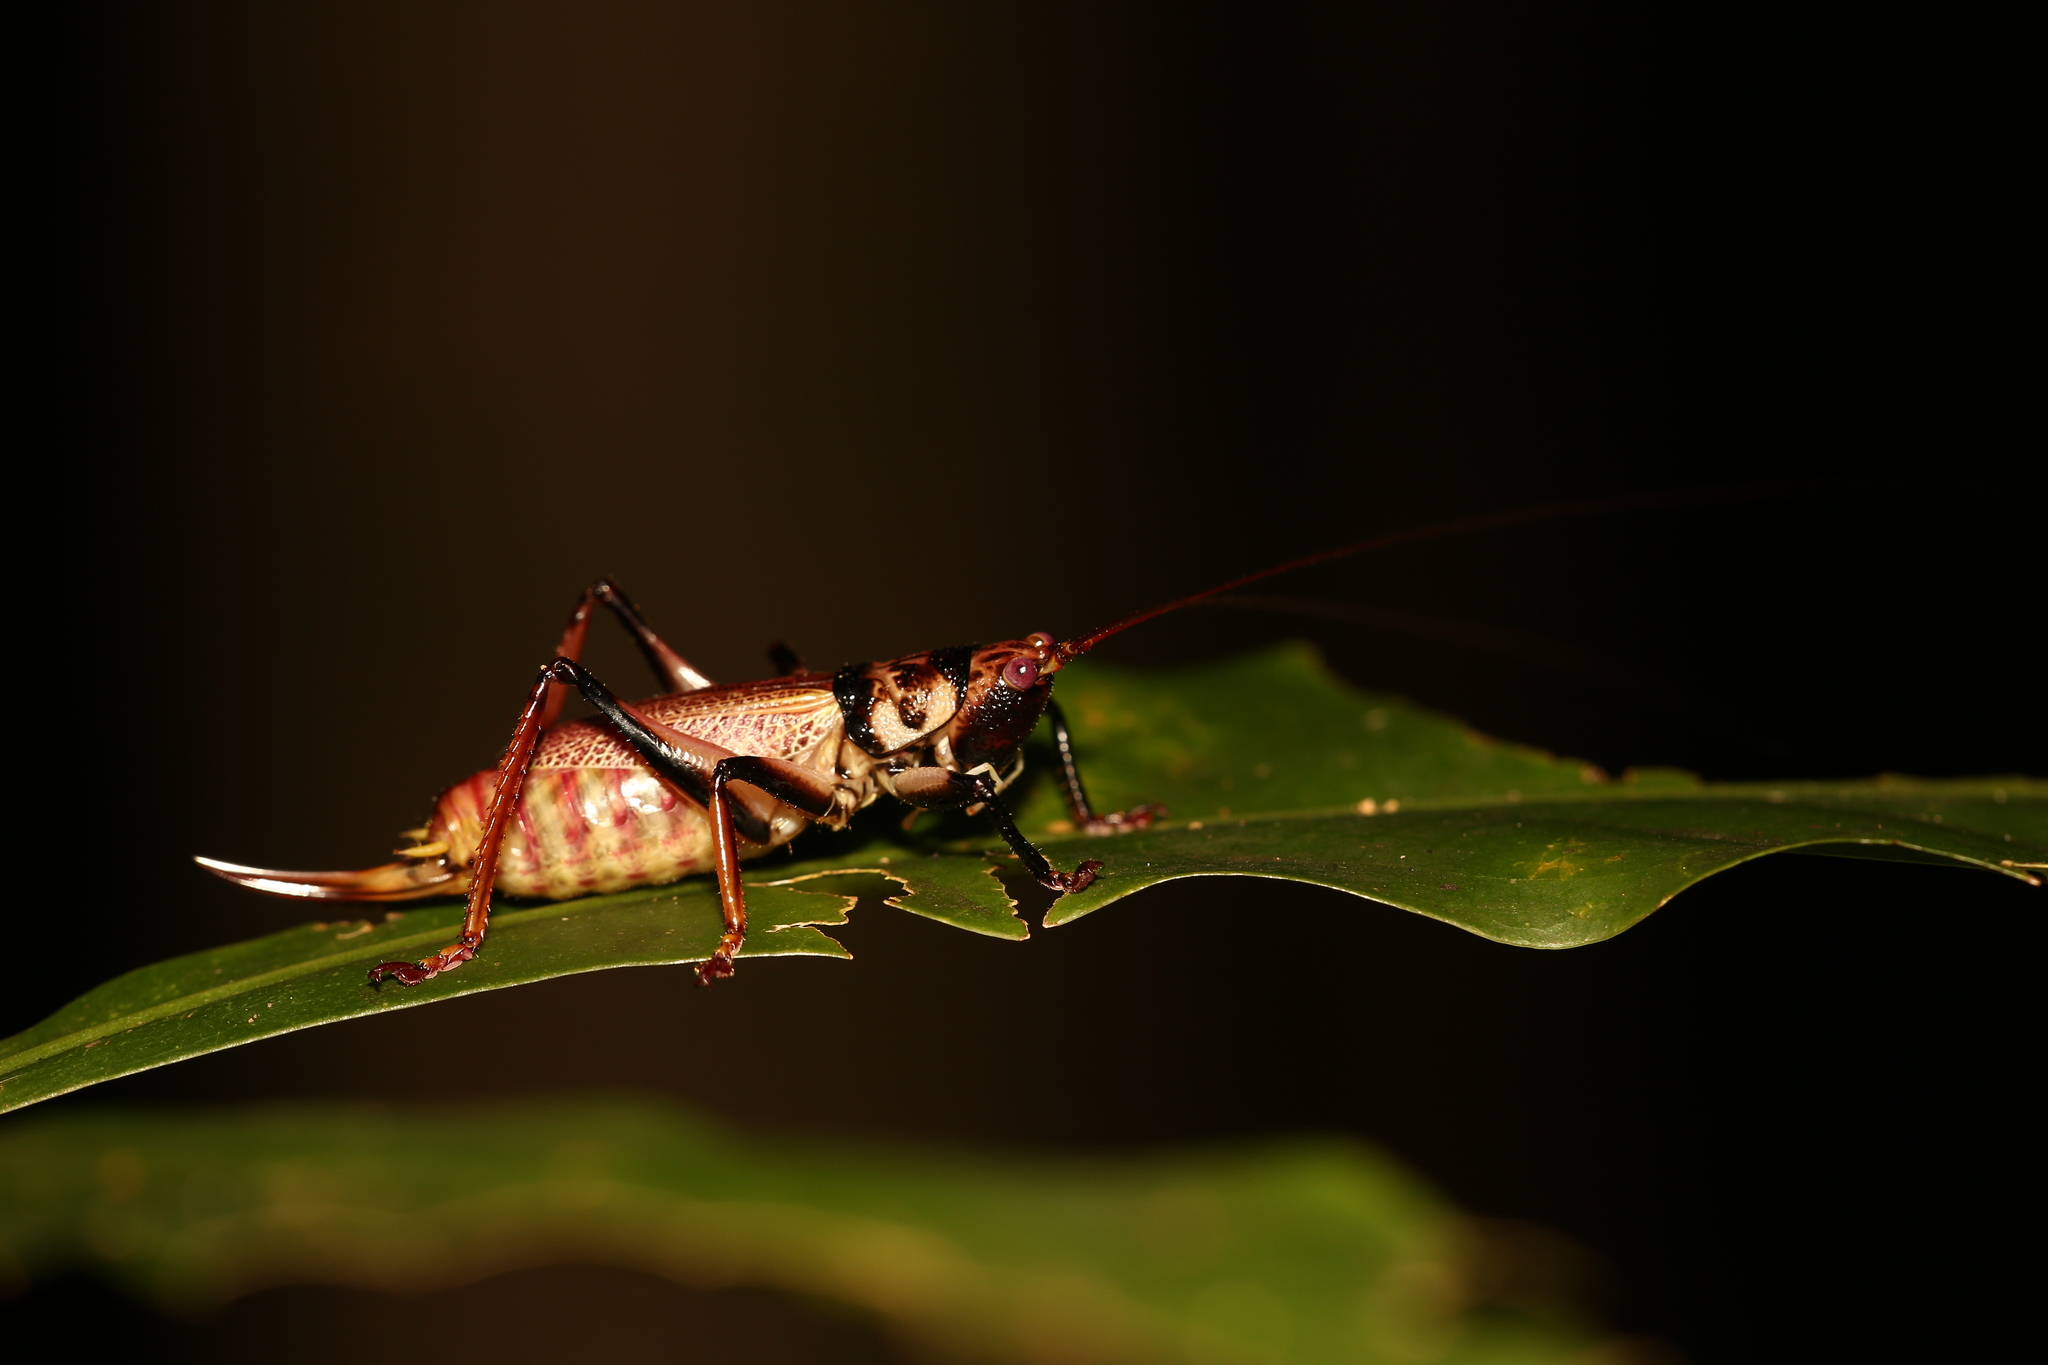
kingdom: Animalia
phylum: Arthropoda
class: Insecta
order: Orthoptera
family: Tettigoniidae
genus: Salomona
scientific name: Salomona rouxi
